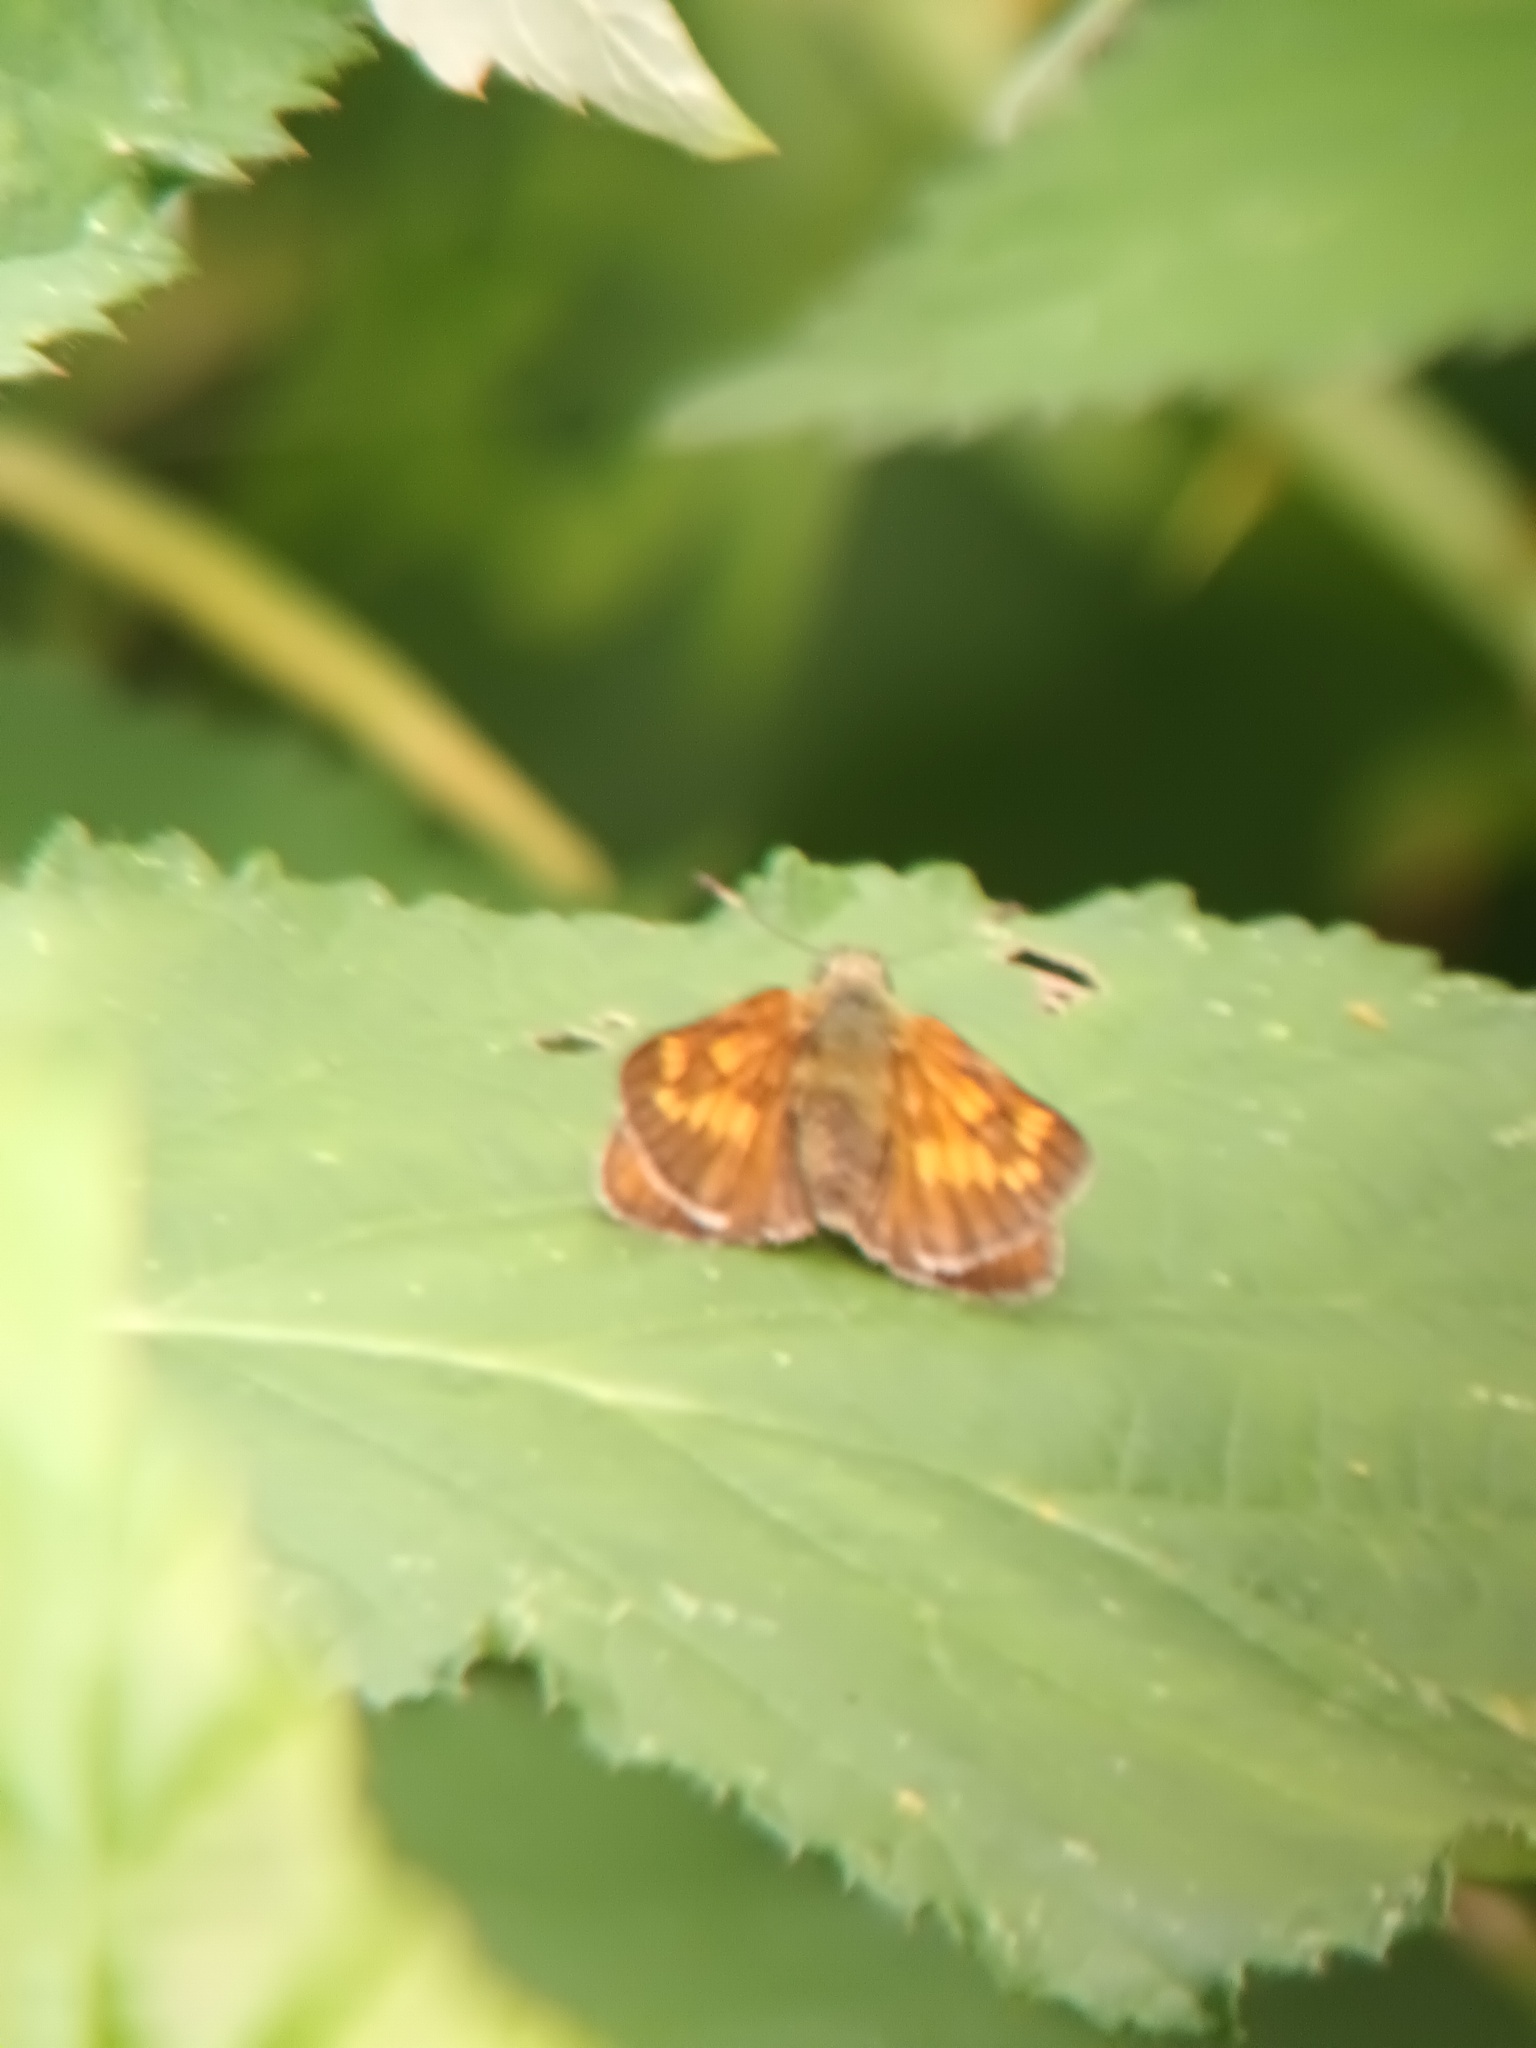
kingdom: Animalia
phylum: Arthropoda
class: Insecta
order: Lepidoptera
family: Hesperiidae
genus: Ochlodes
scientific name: Ochlodes venata
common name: Large skipper
